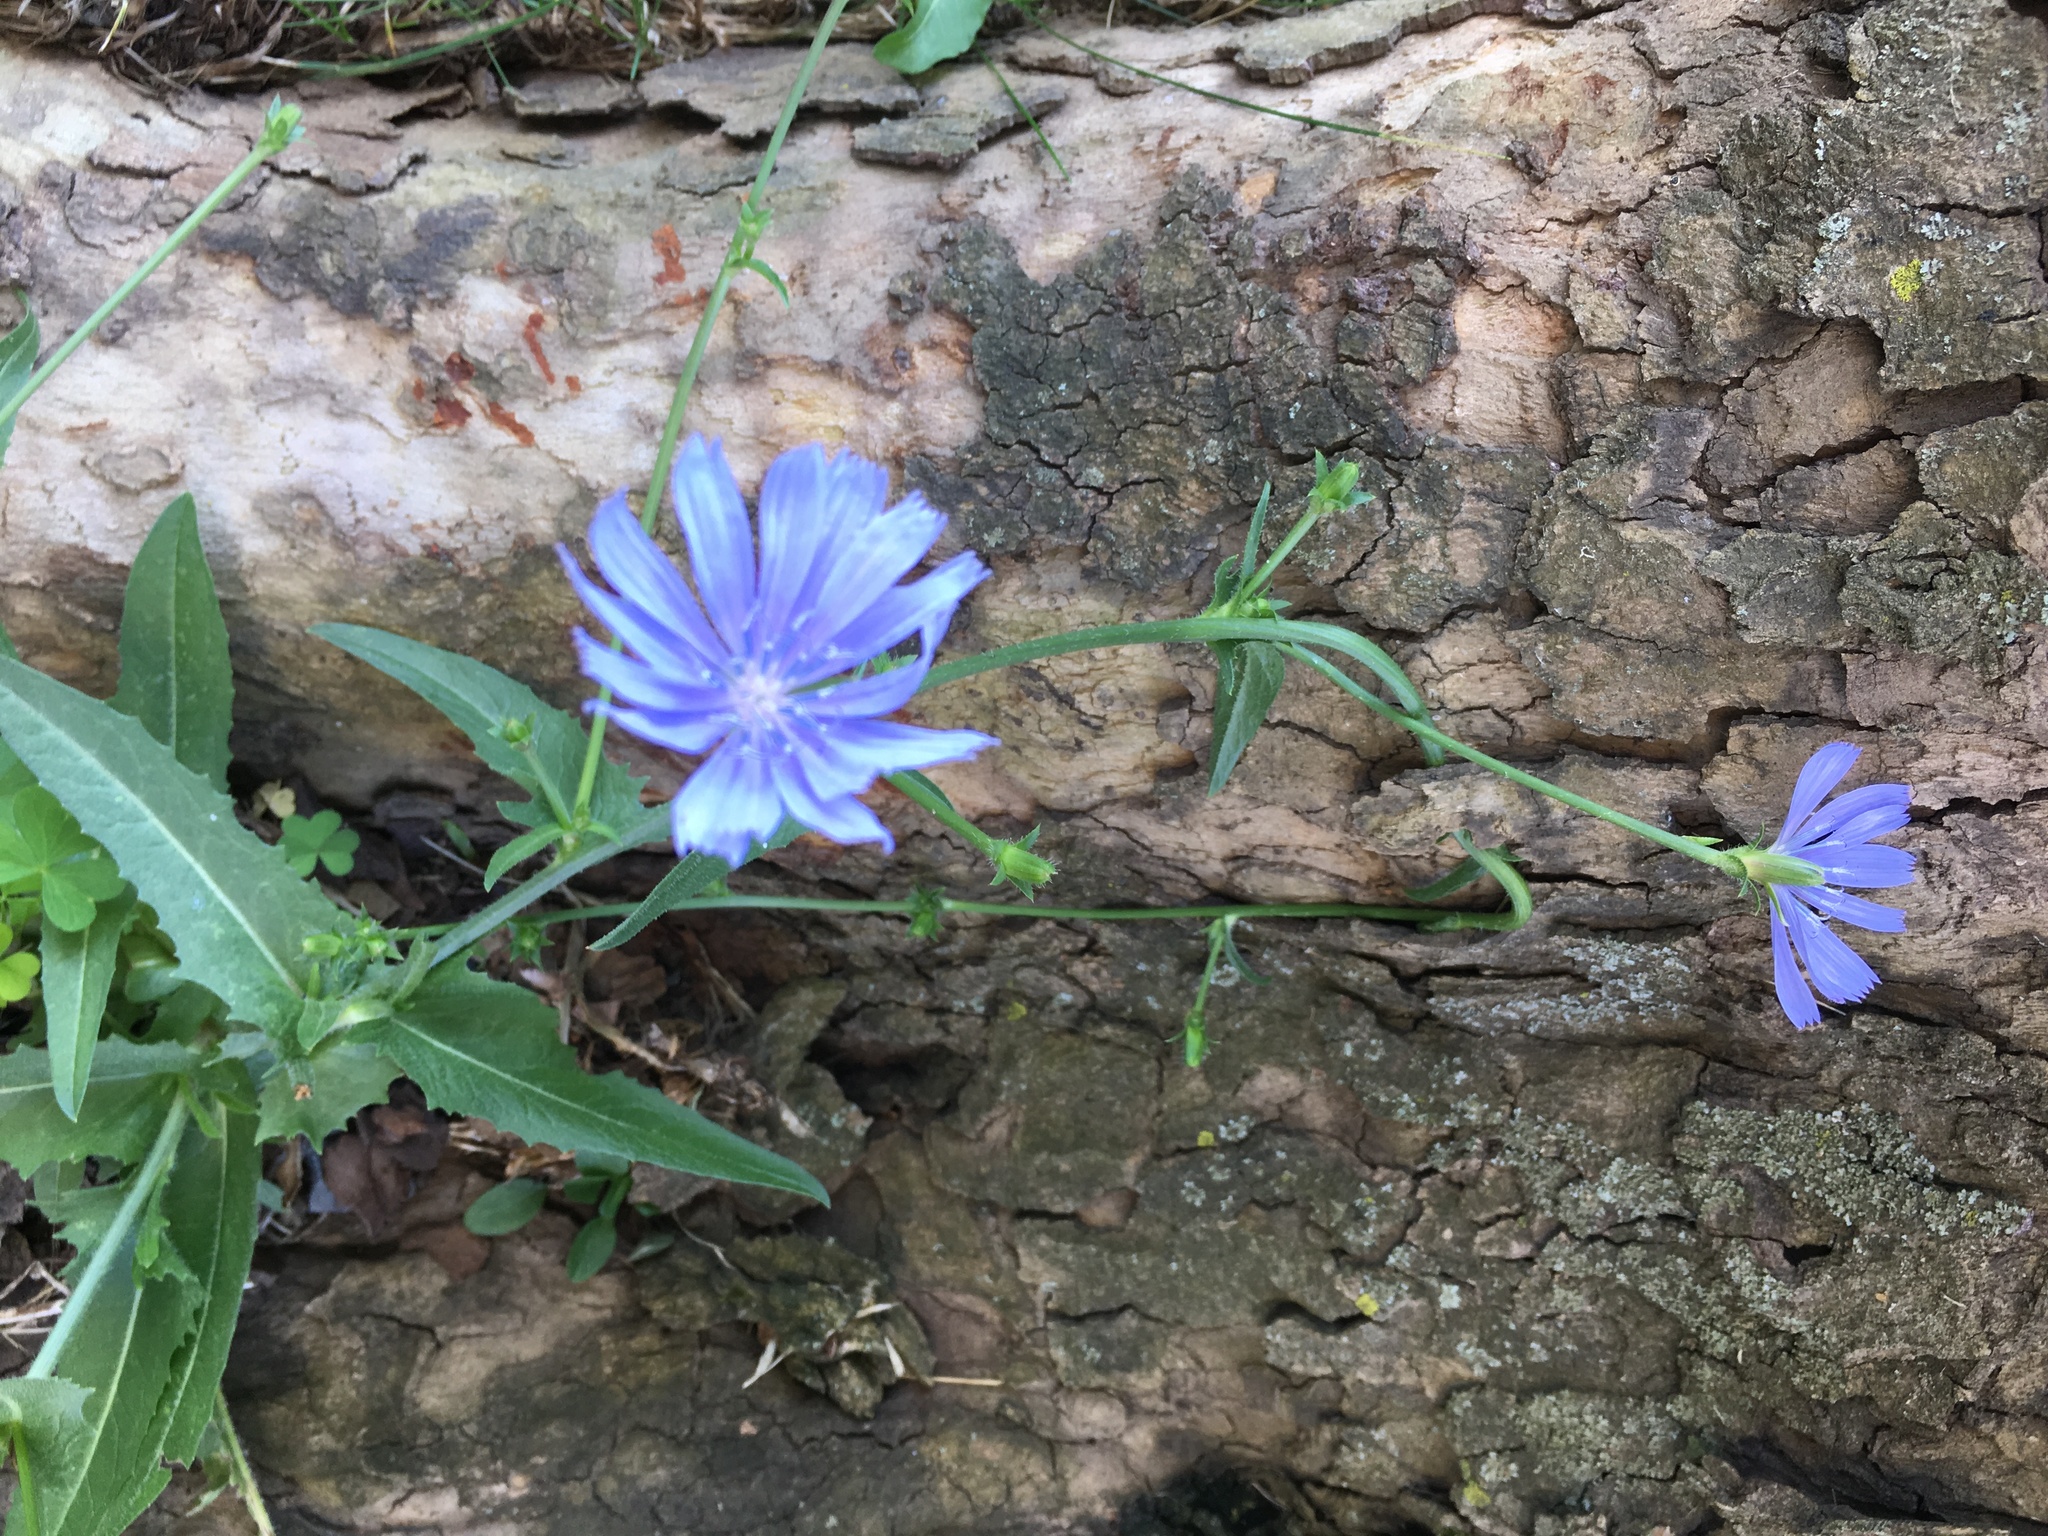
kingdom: Plantae
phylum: Tracheophyta
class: Magnoliopsida
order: Asterales
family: Asteraceae
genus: Cichorium
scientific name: Cichorium intybus
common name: Chicory
